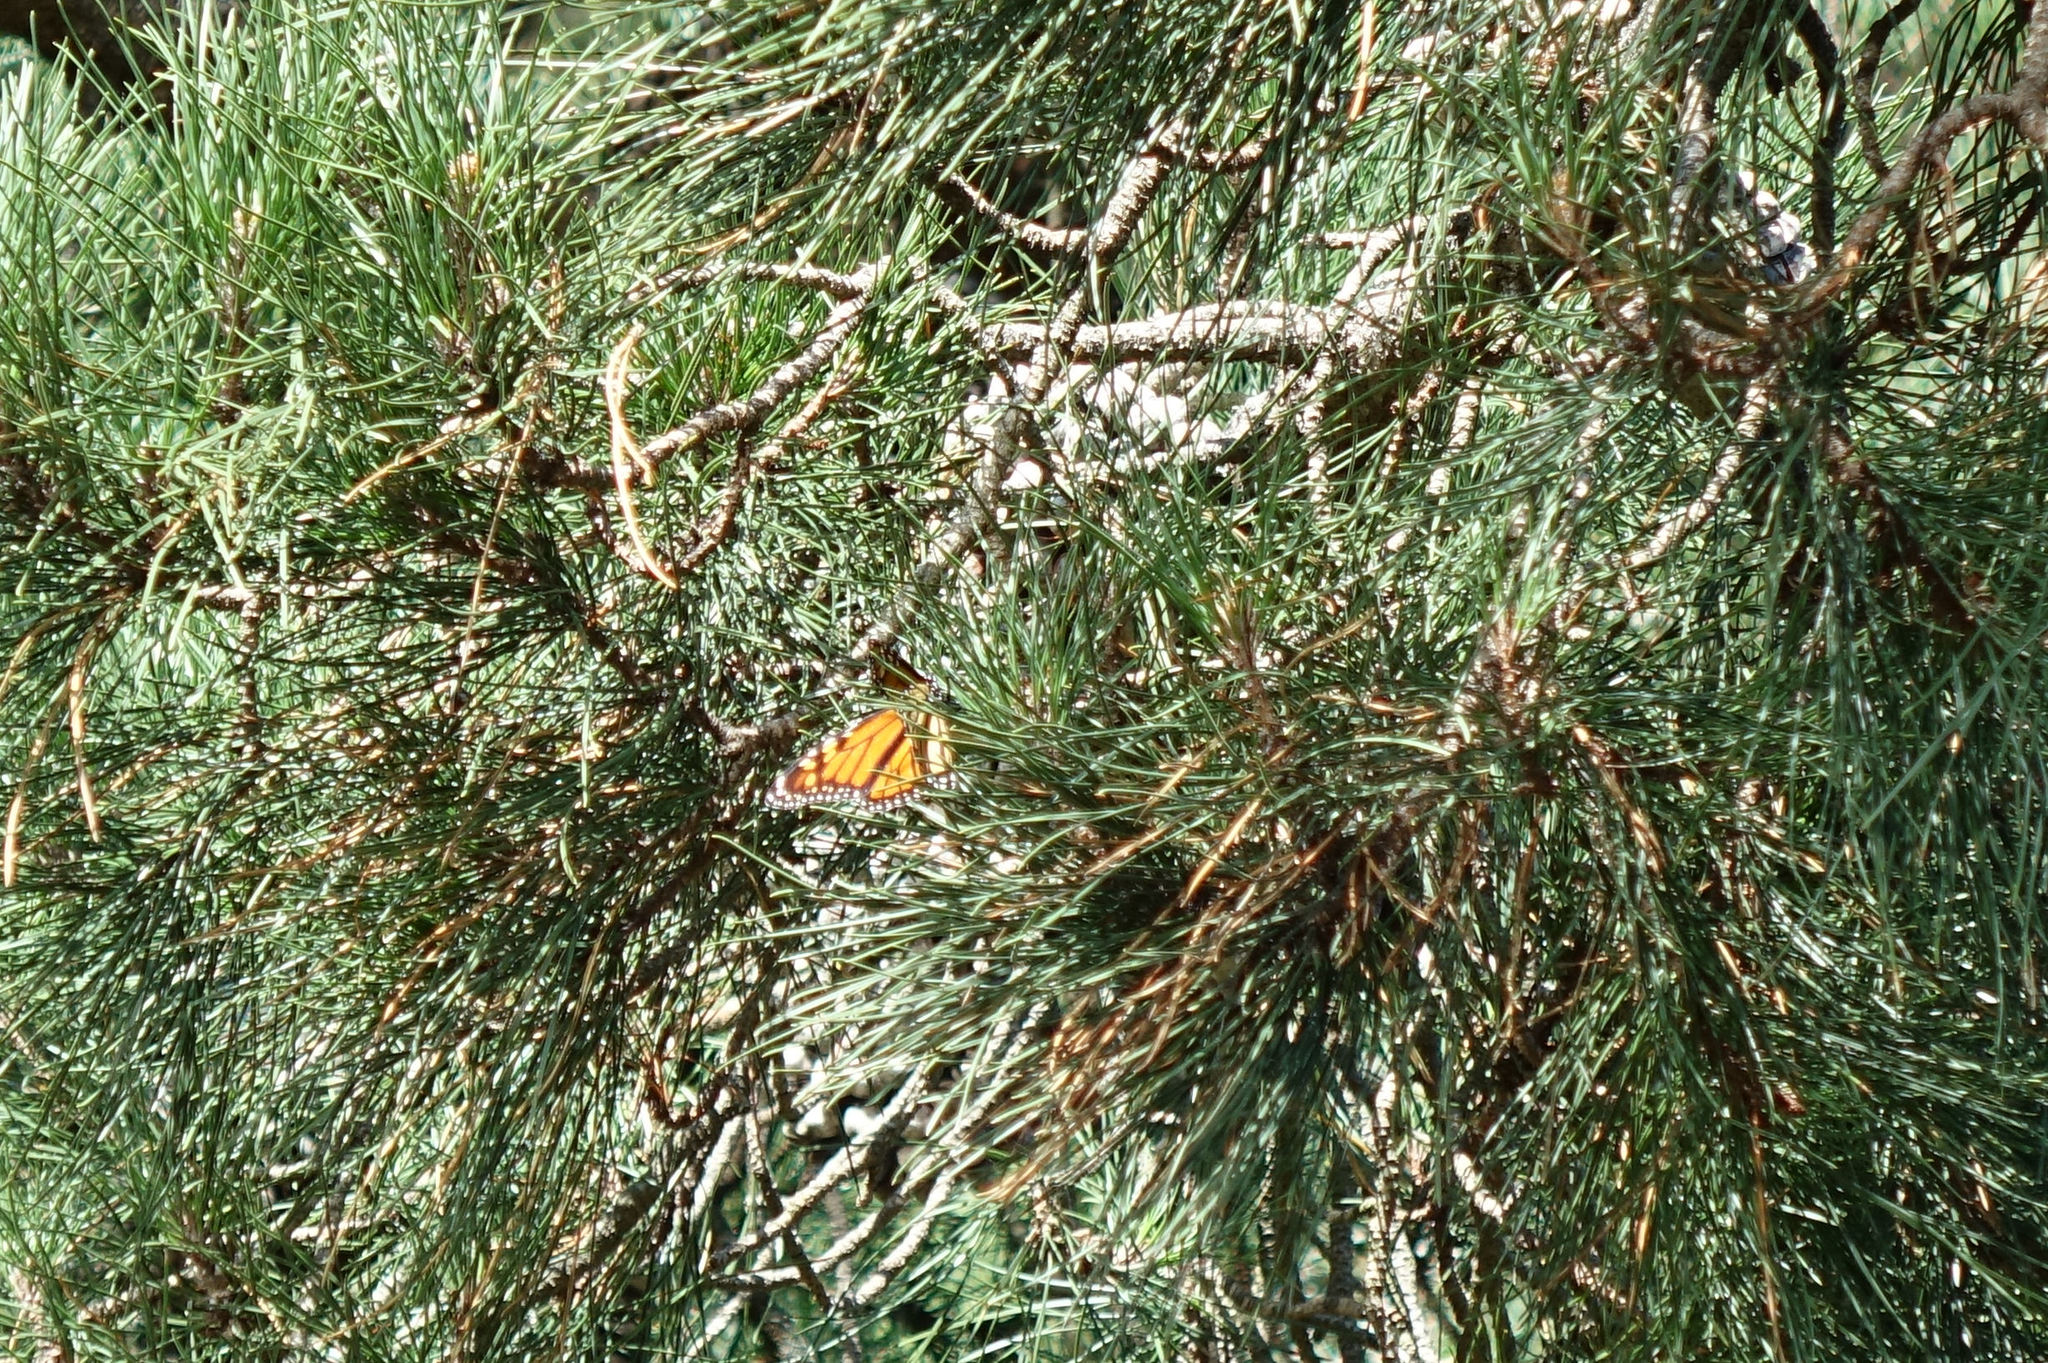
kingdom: Animalia
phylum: Arthropoda
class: Insecta
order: Lepidoptera
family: Nymphalidae
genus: Danaus
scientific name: Danaus plexippus
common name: Monarch
